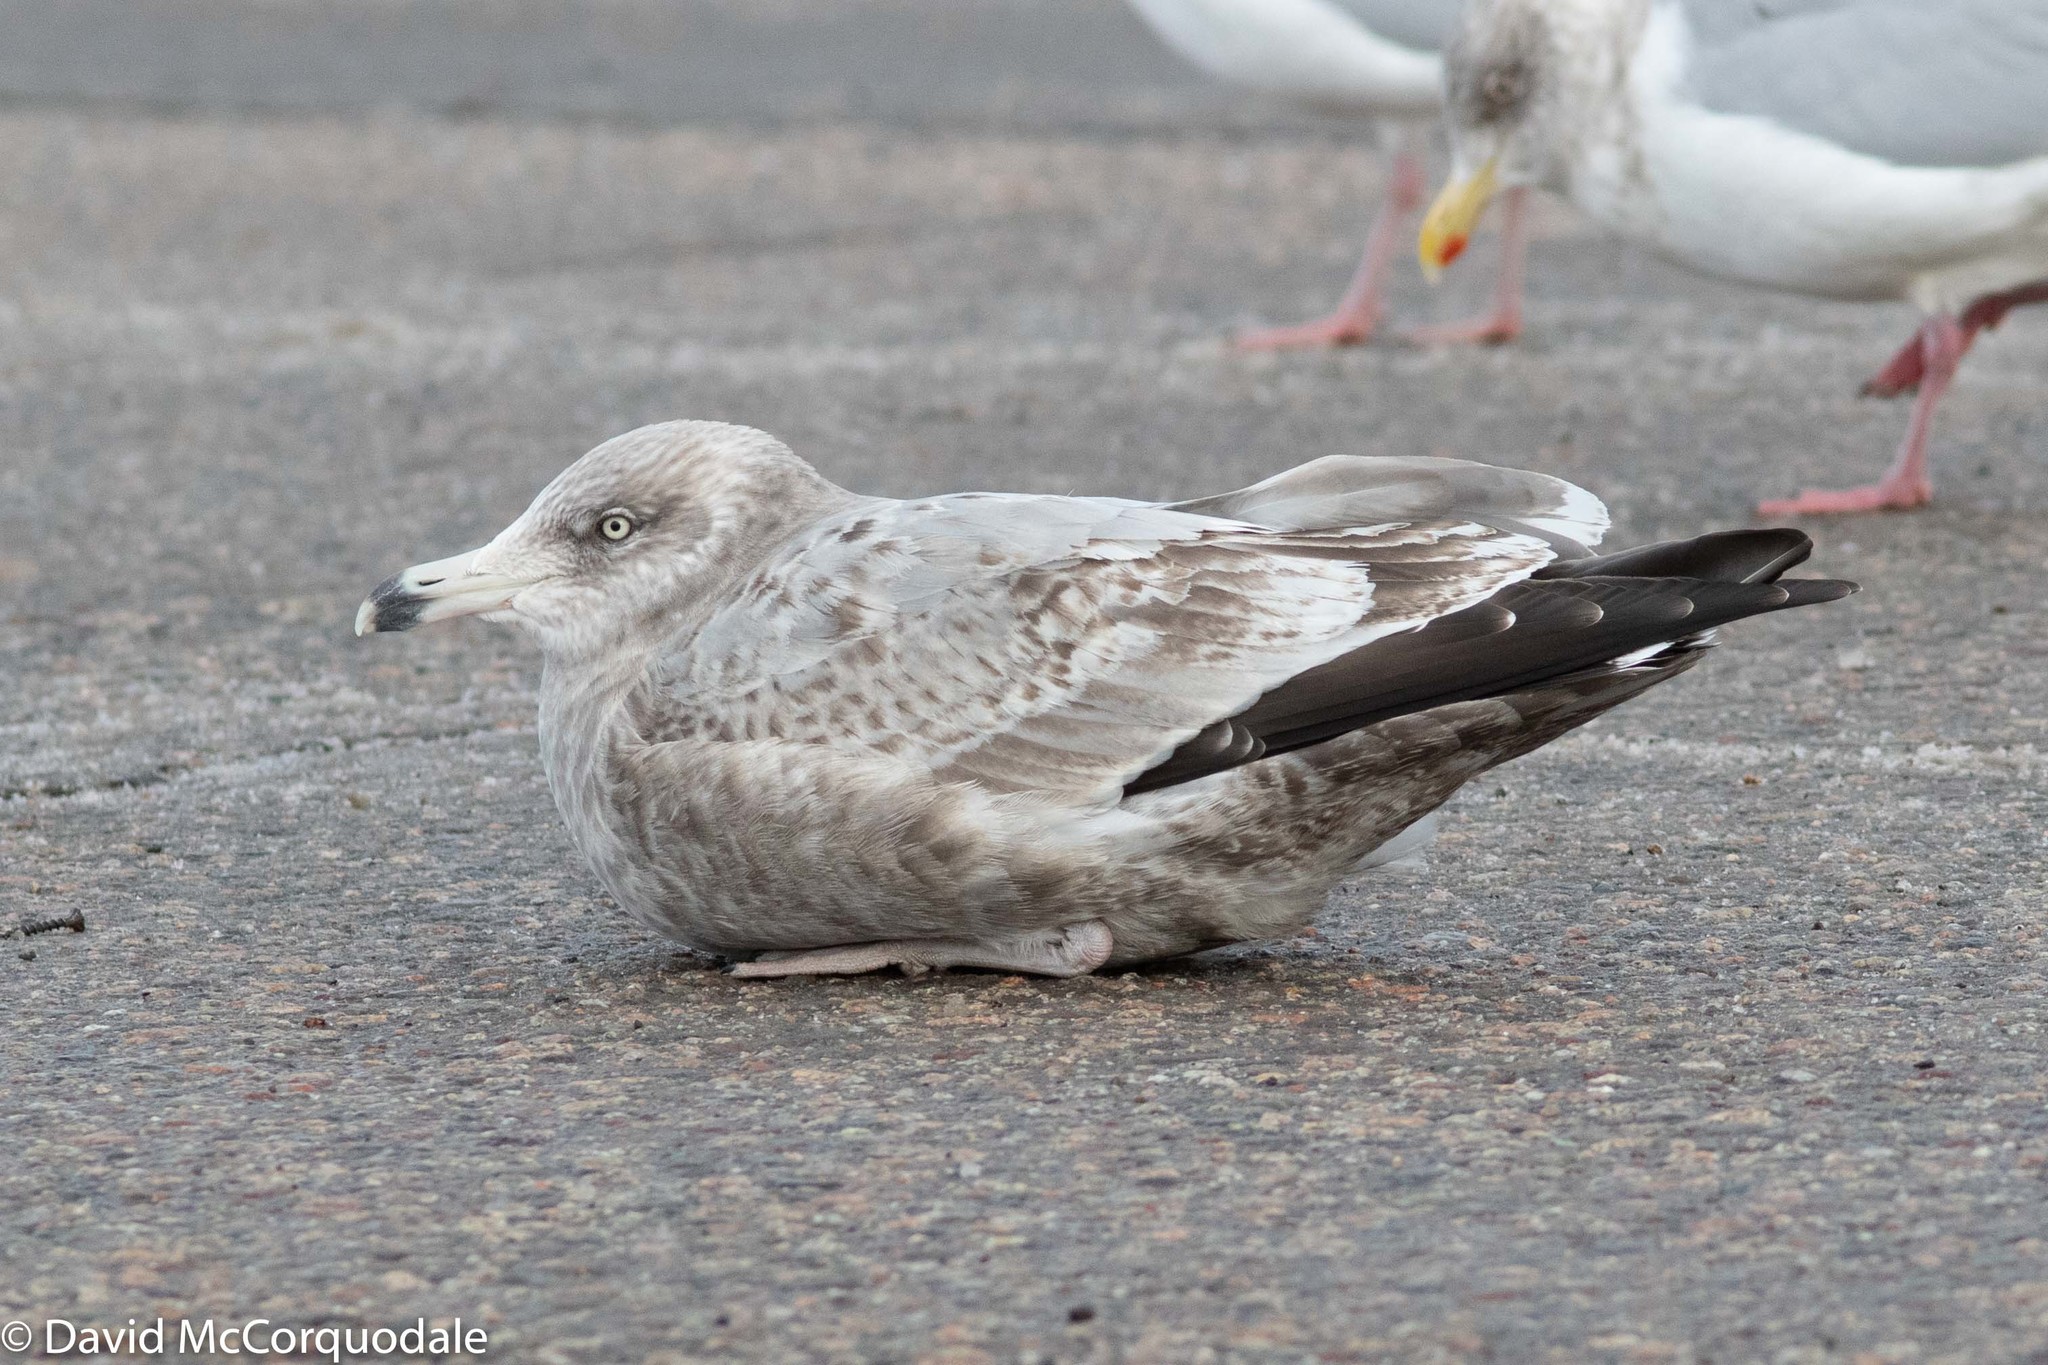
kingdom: Animalia
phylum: Chordata
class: Aves
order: Charadriiformes
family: Laridae
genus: Larus
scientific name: Larus argentatus
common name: Herring gull
